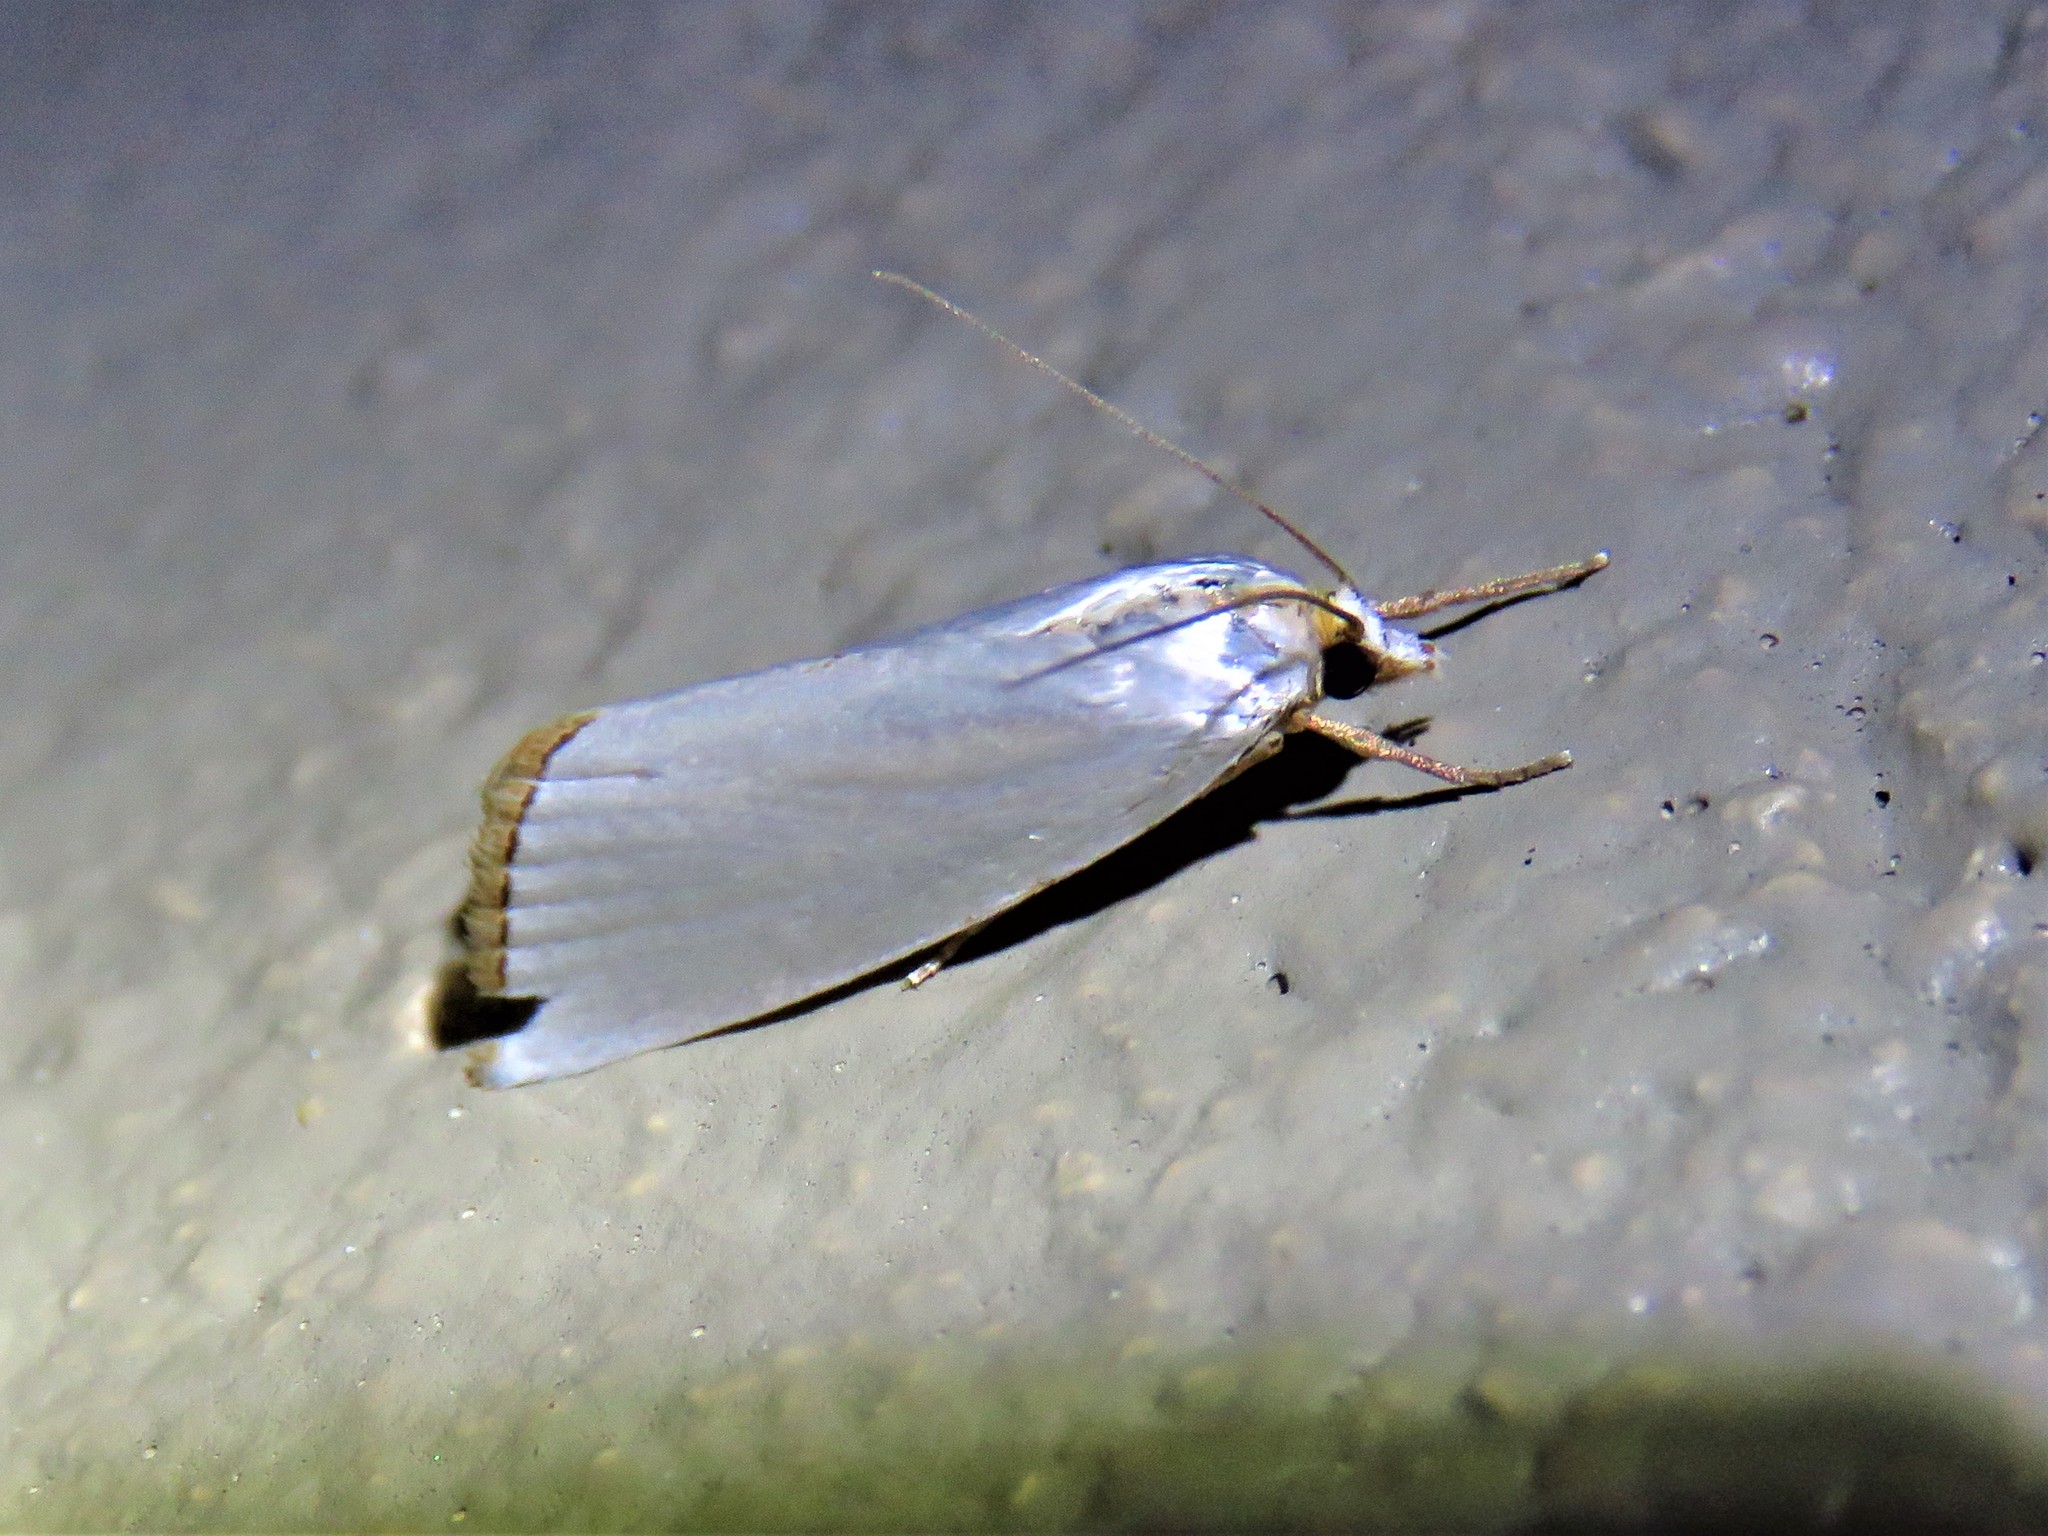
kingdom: Animalia
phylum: Arthropoda
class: Insecta
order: Lepidoptera
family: Crambidae
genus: Argyria
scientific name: Argyria nivalis
